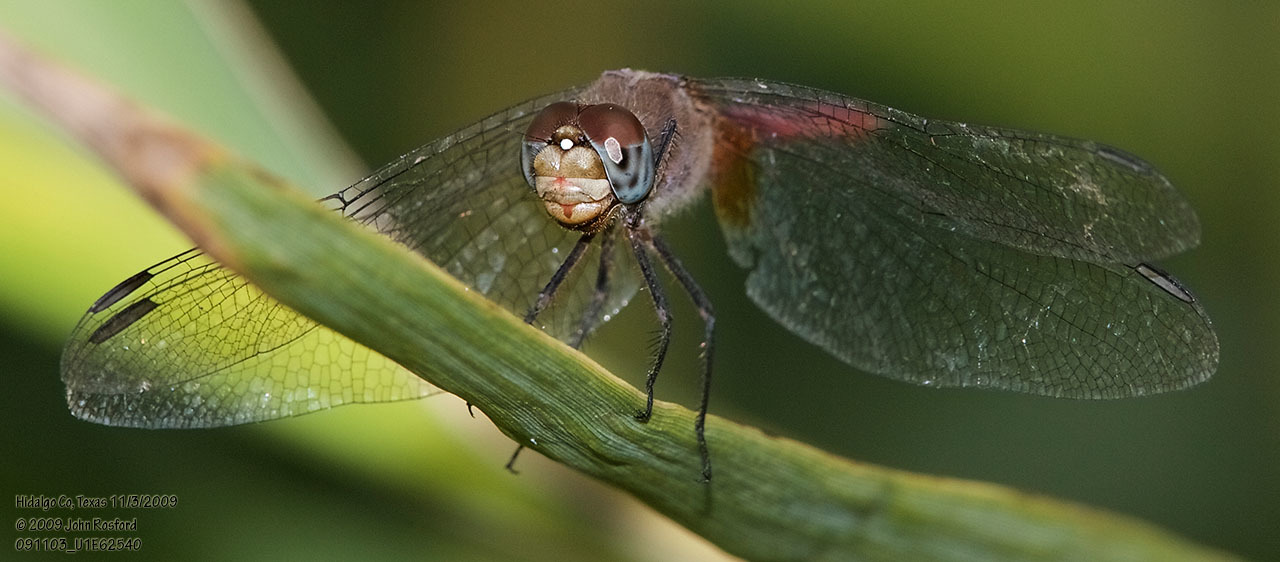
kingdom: Animalia
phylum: Arthropoda
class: Insecta
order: Odonata
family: Libellulidae
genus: Brachymesia
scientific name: Brachymesia furcata
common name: Red-taled pennant
